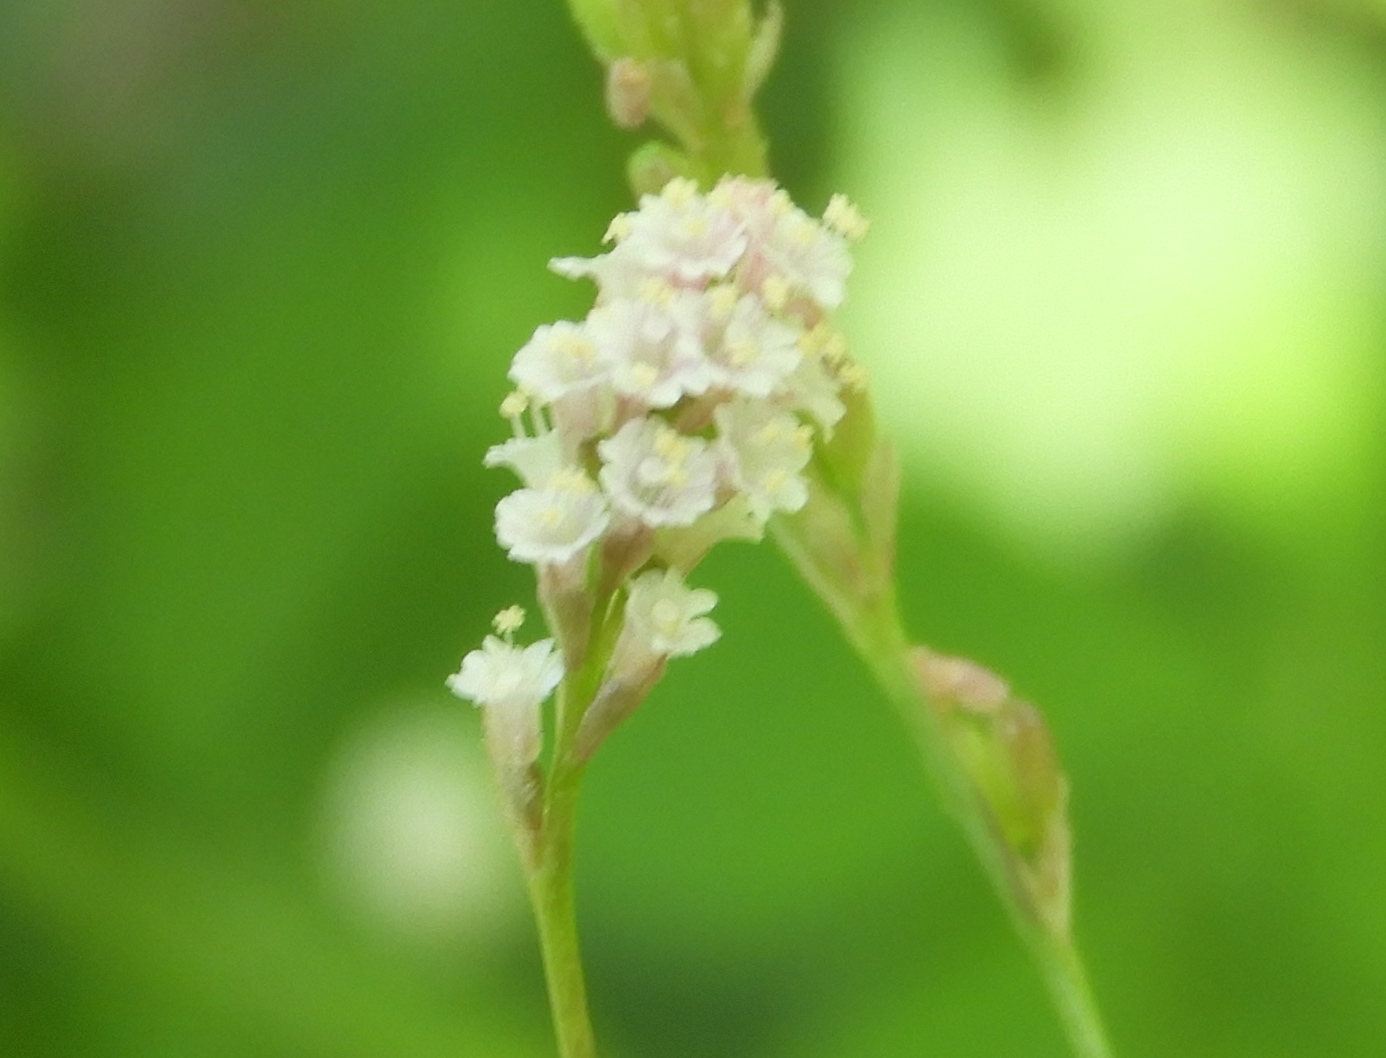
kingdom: Plantae
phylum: Tracheophyta
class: Magnoliopsida
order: Caryophyllales
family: Nyctaginaceae
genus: Boerhavia
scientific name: Boerhavia erecta
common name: Erect spiderling
